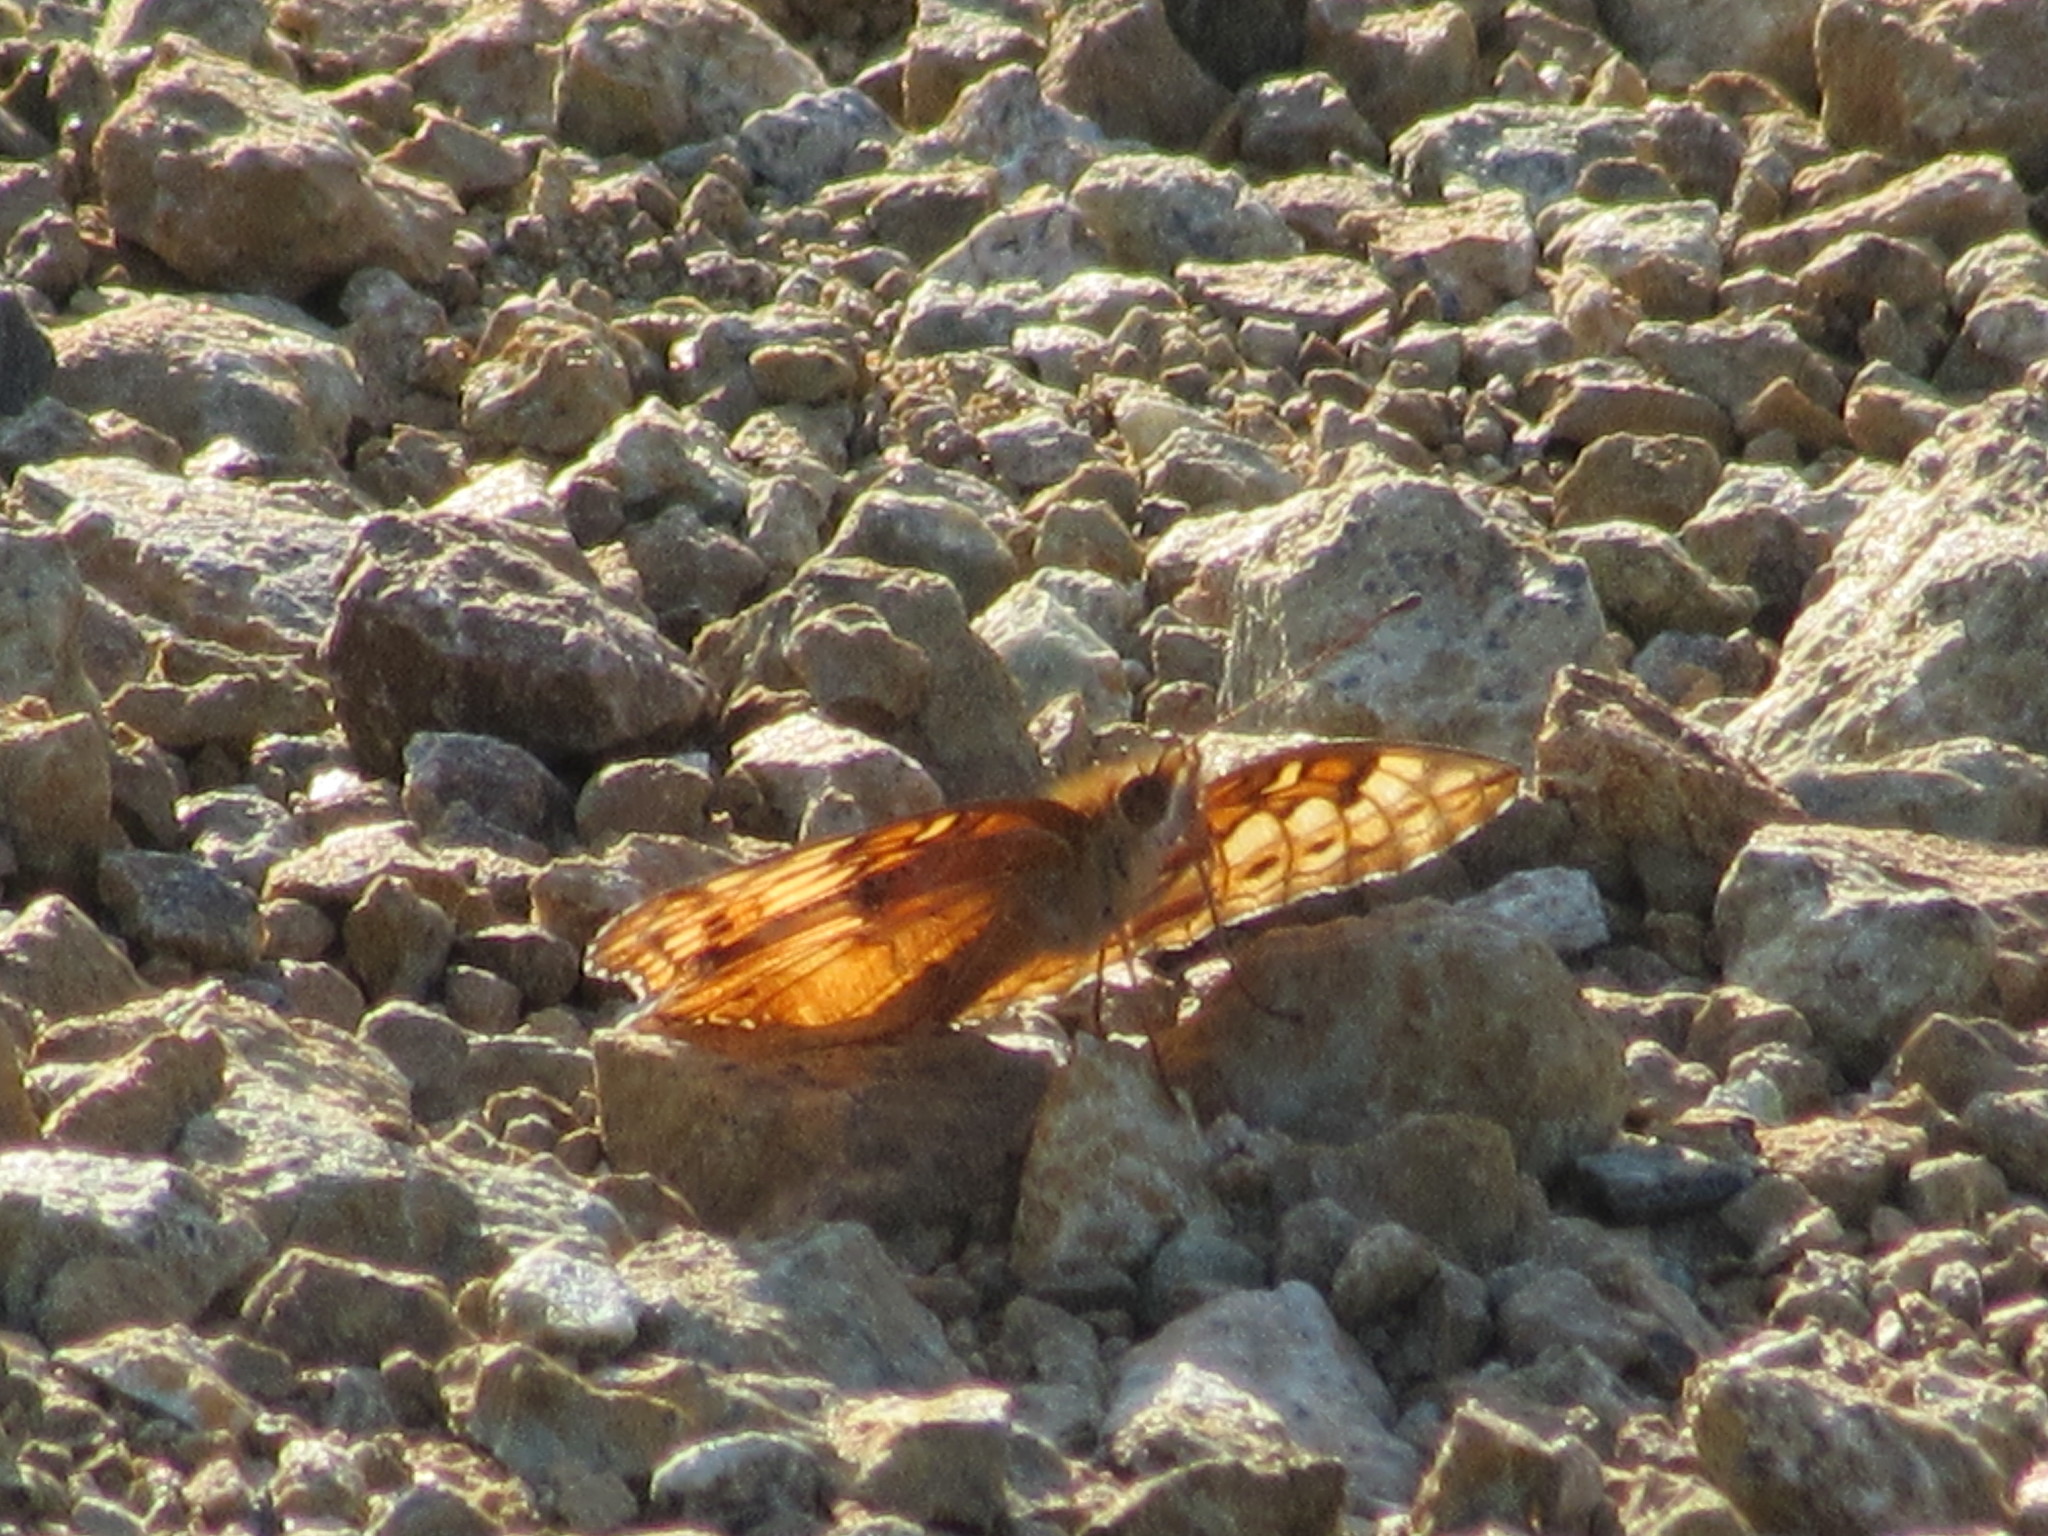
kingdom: Animalia
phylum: Arthropoda
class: Insecta
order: Lepidoptera
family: Nymphalidae
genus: Euptoieta
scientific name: Euptoieta claudia
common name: Variegated fritillary
